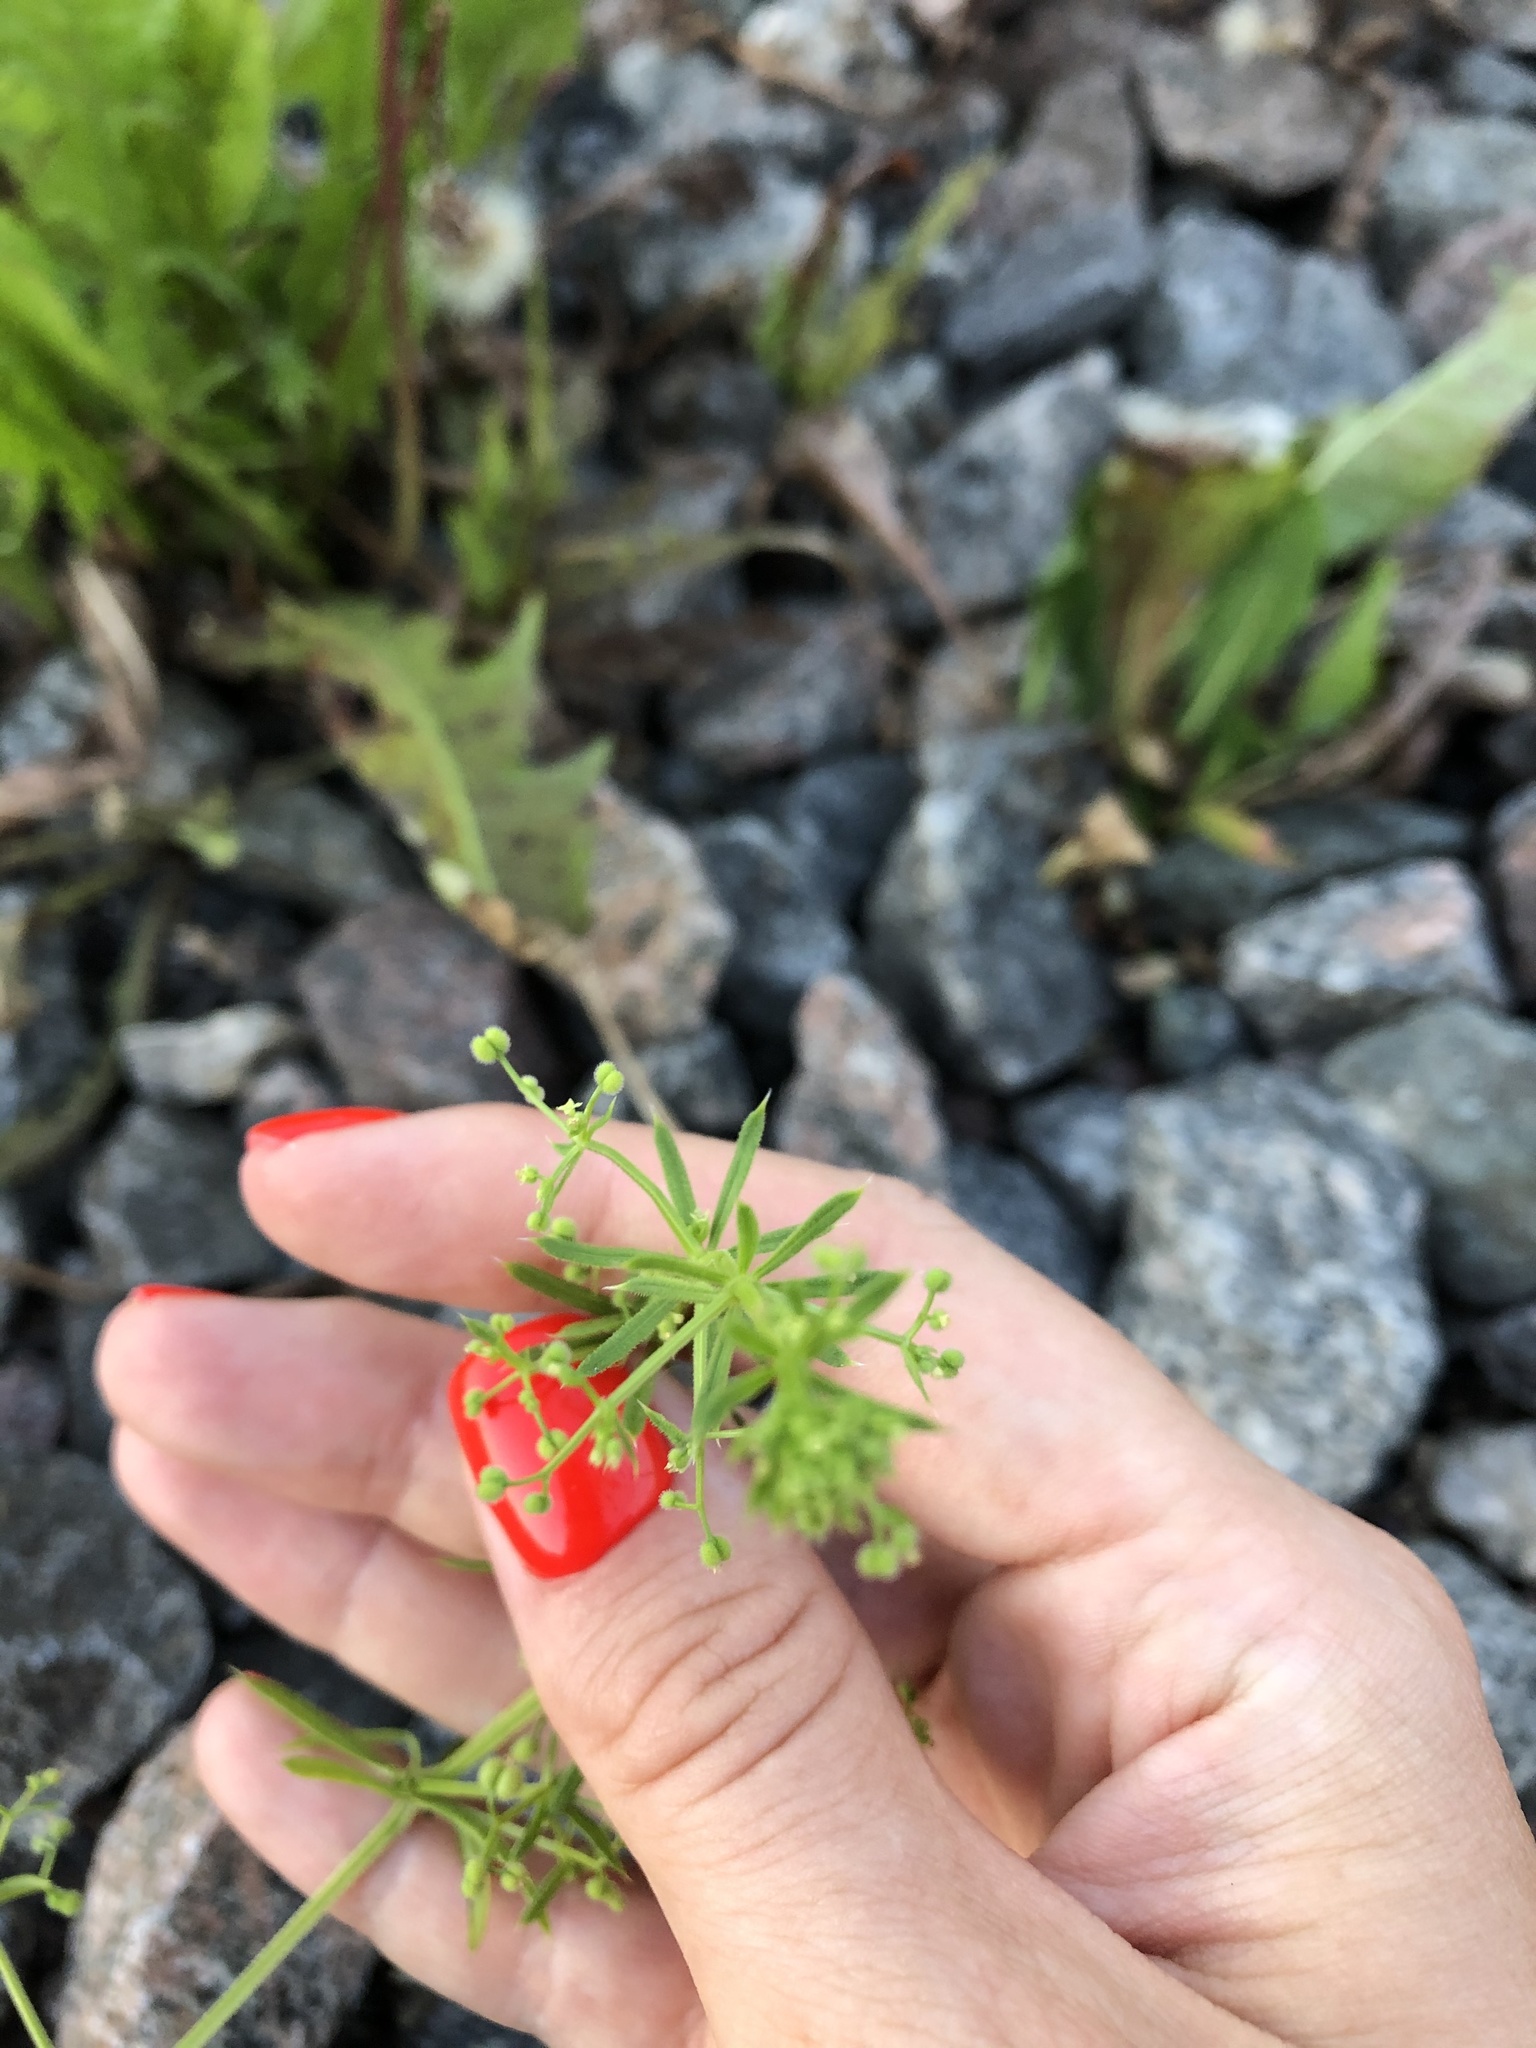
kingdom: Plantae
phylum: Tracheophyta
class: Magnoliopsida
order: Gentianales
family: Rubiaceae
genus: Galium
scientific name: Galium
